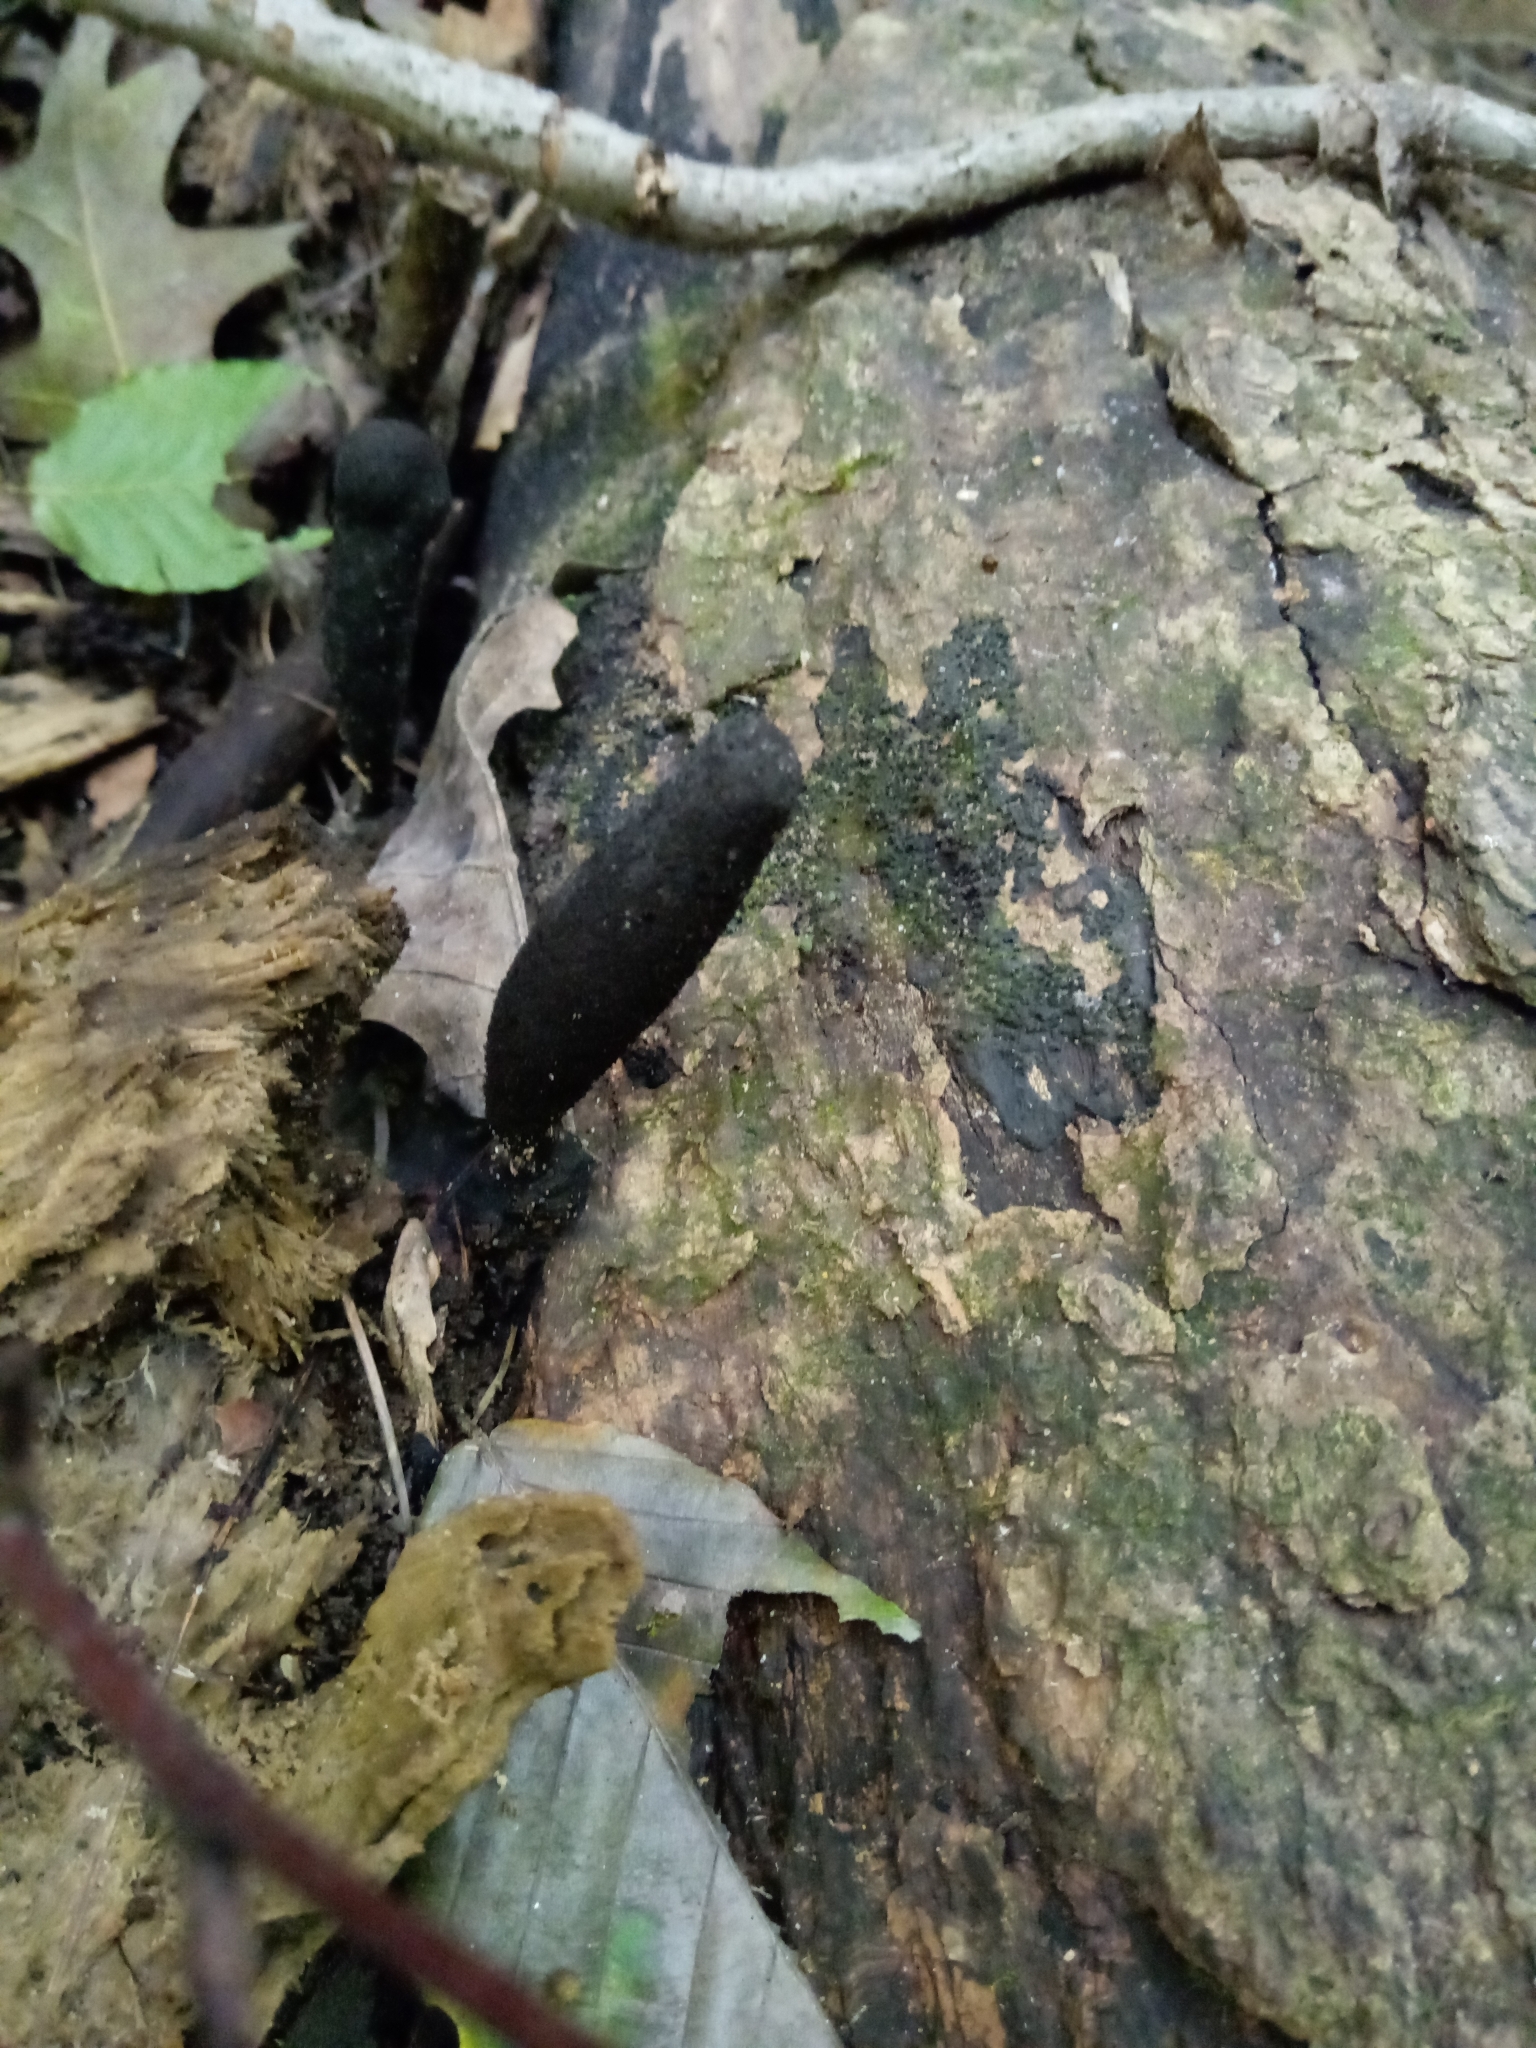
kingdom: Fungi
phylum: Ascomycota
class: Sordariomycetes
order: Xylariales
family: Xylariaceae
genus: Xylaria
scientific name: Xylaria longipes
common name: Dead moll's fingers
